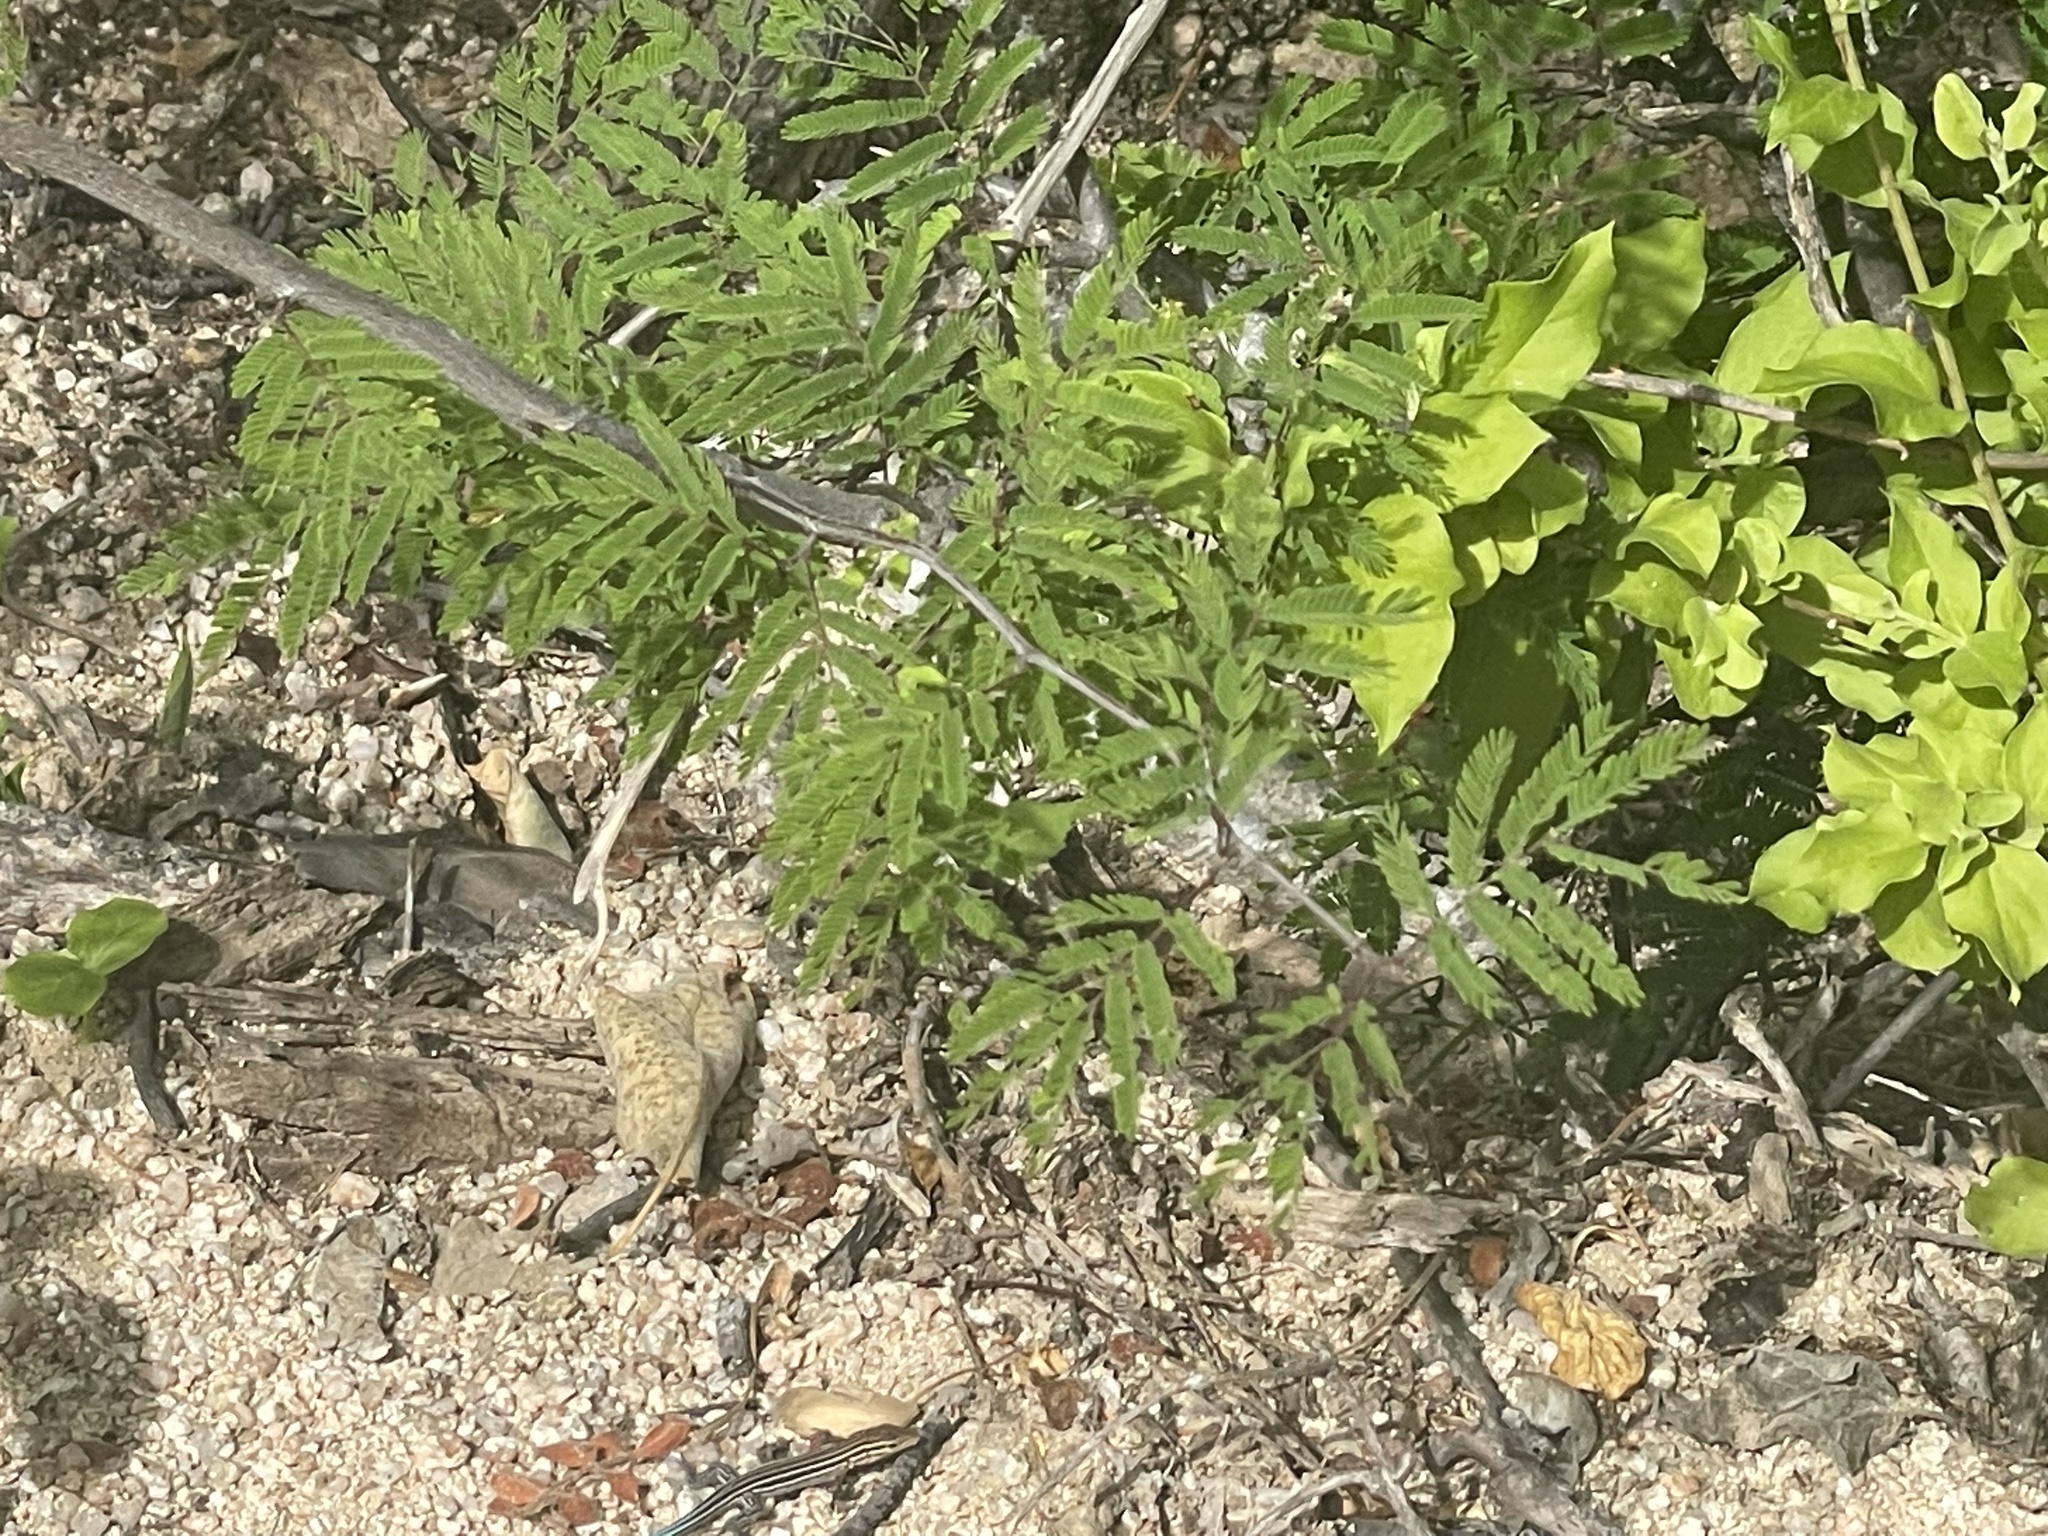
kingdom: Animalia
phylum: Chordata
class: Squamata
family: Teiidae
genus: Aspidoscelis
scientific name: Aspidoscelis hyperythrus
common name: Orange-throated race-runner
